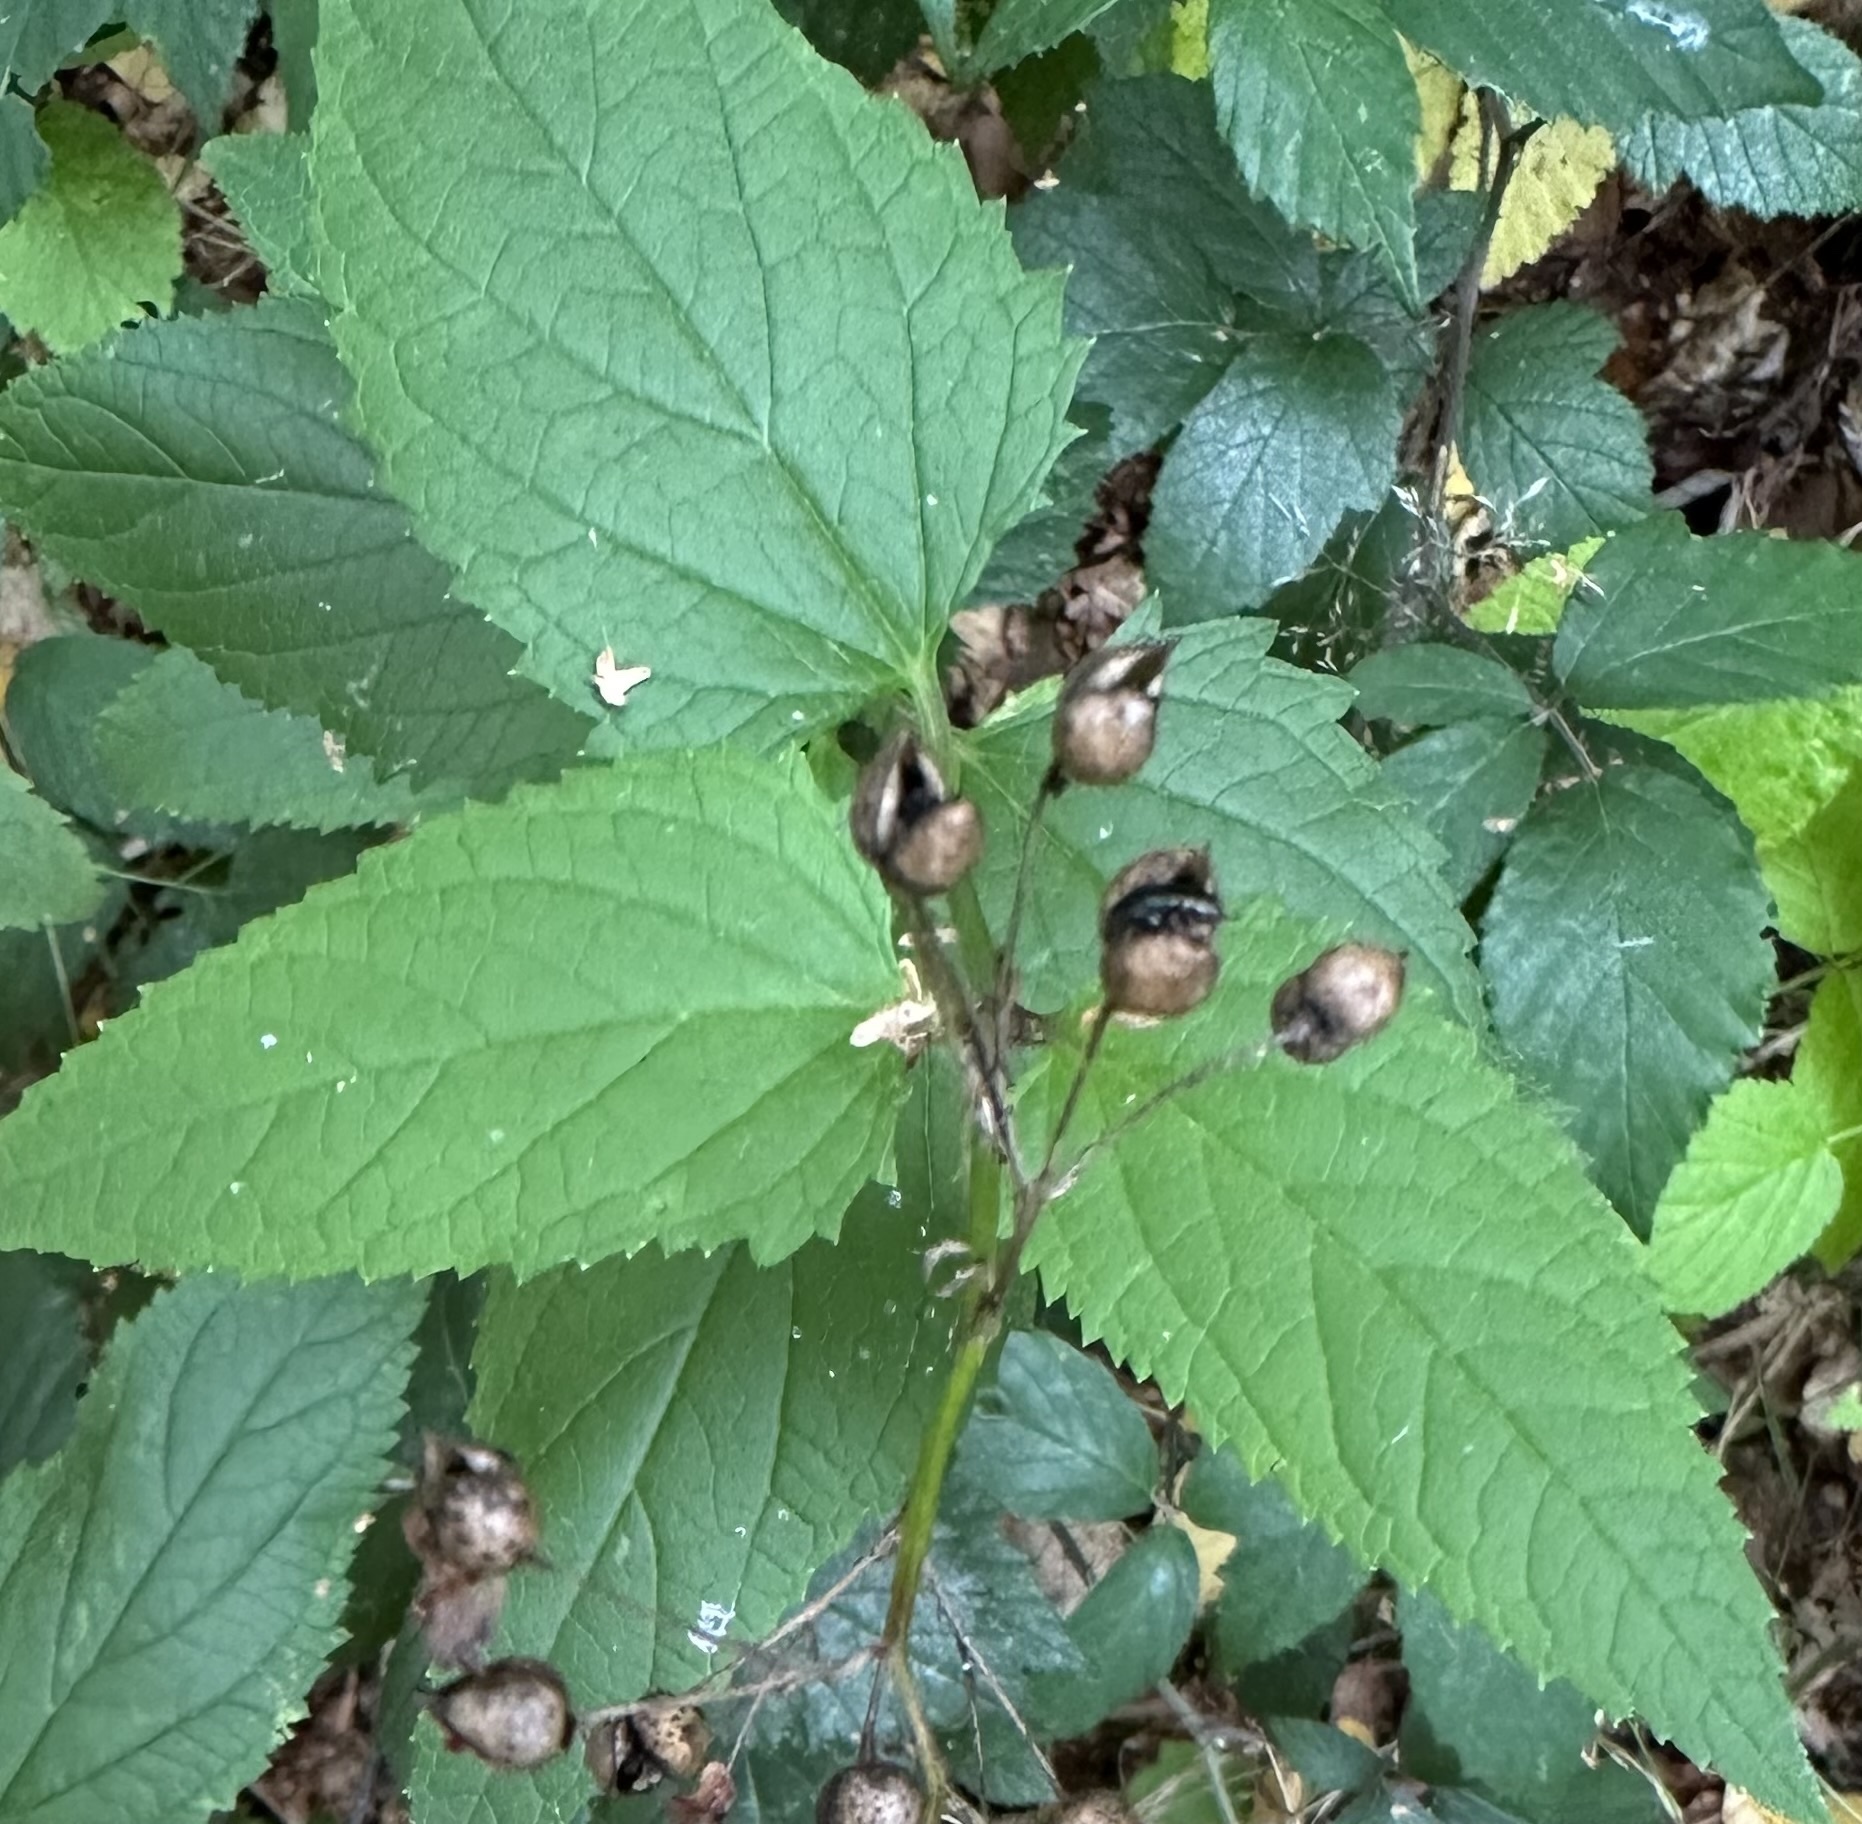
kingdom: Plantae
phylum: Tracheophyta
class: Magnoliopsida
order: Lamiales
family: Scrophulariaceae
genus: Scrophularia
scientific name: Scrophularia nodosa
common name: Common figwort
